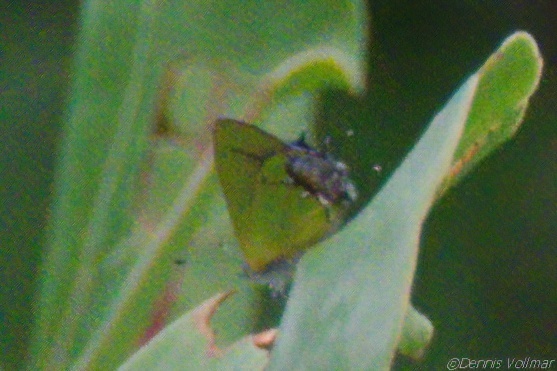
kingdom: Animalia
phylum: Arthropoda
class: Insecta
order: Lepidoptera
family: Lycaenidae
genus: Thecla
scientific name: Thecla maesites
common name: Verde azul hairstreak
